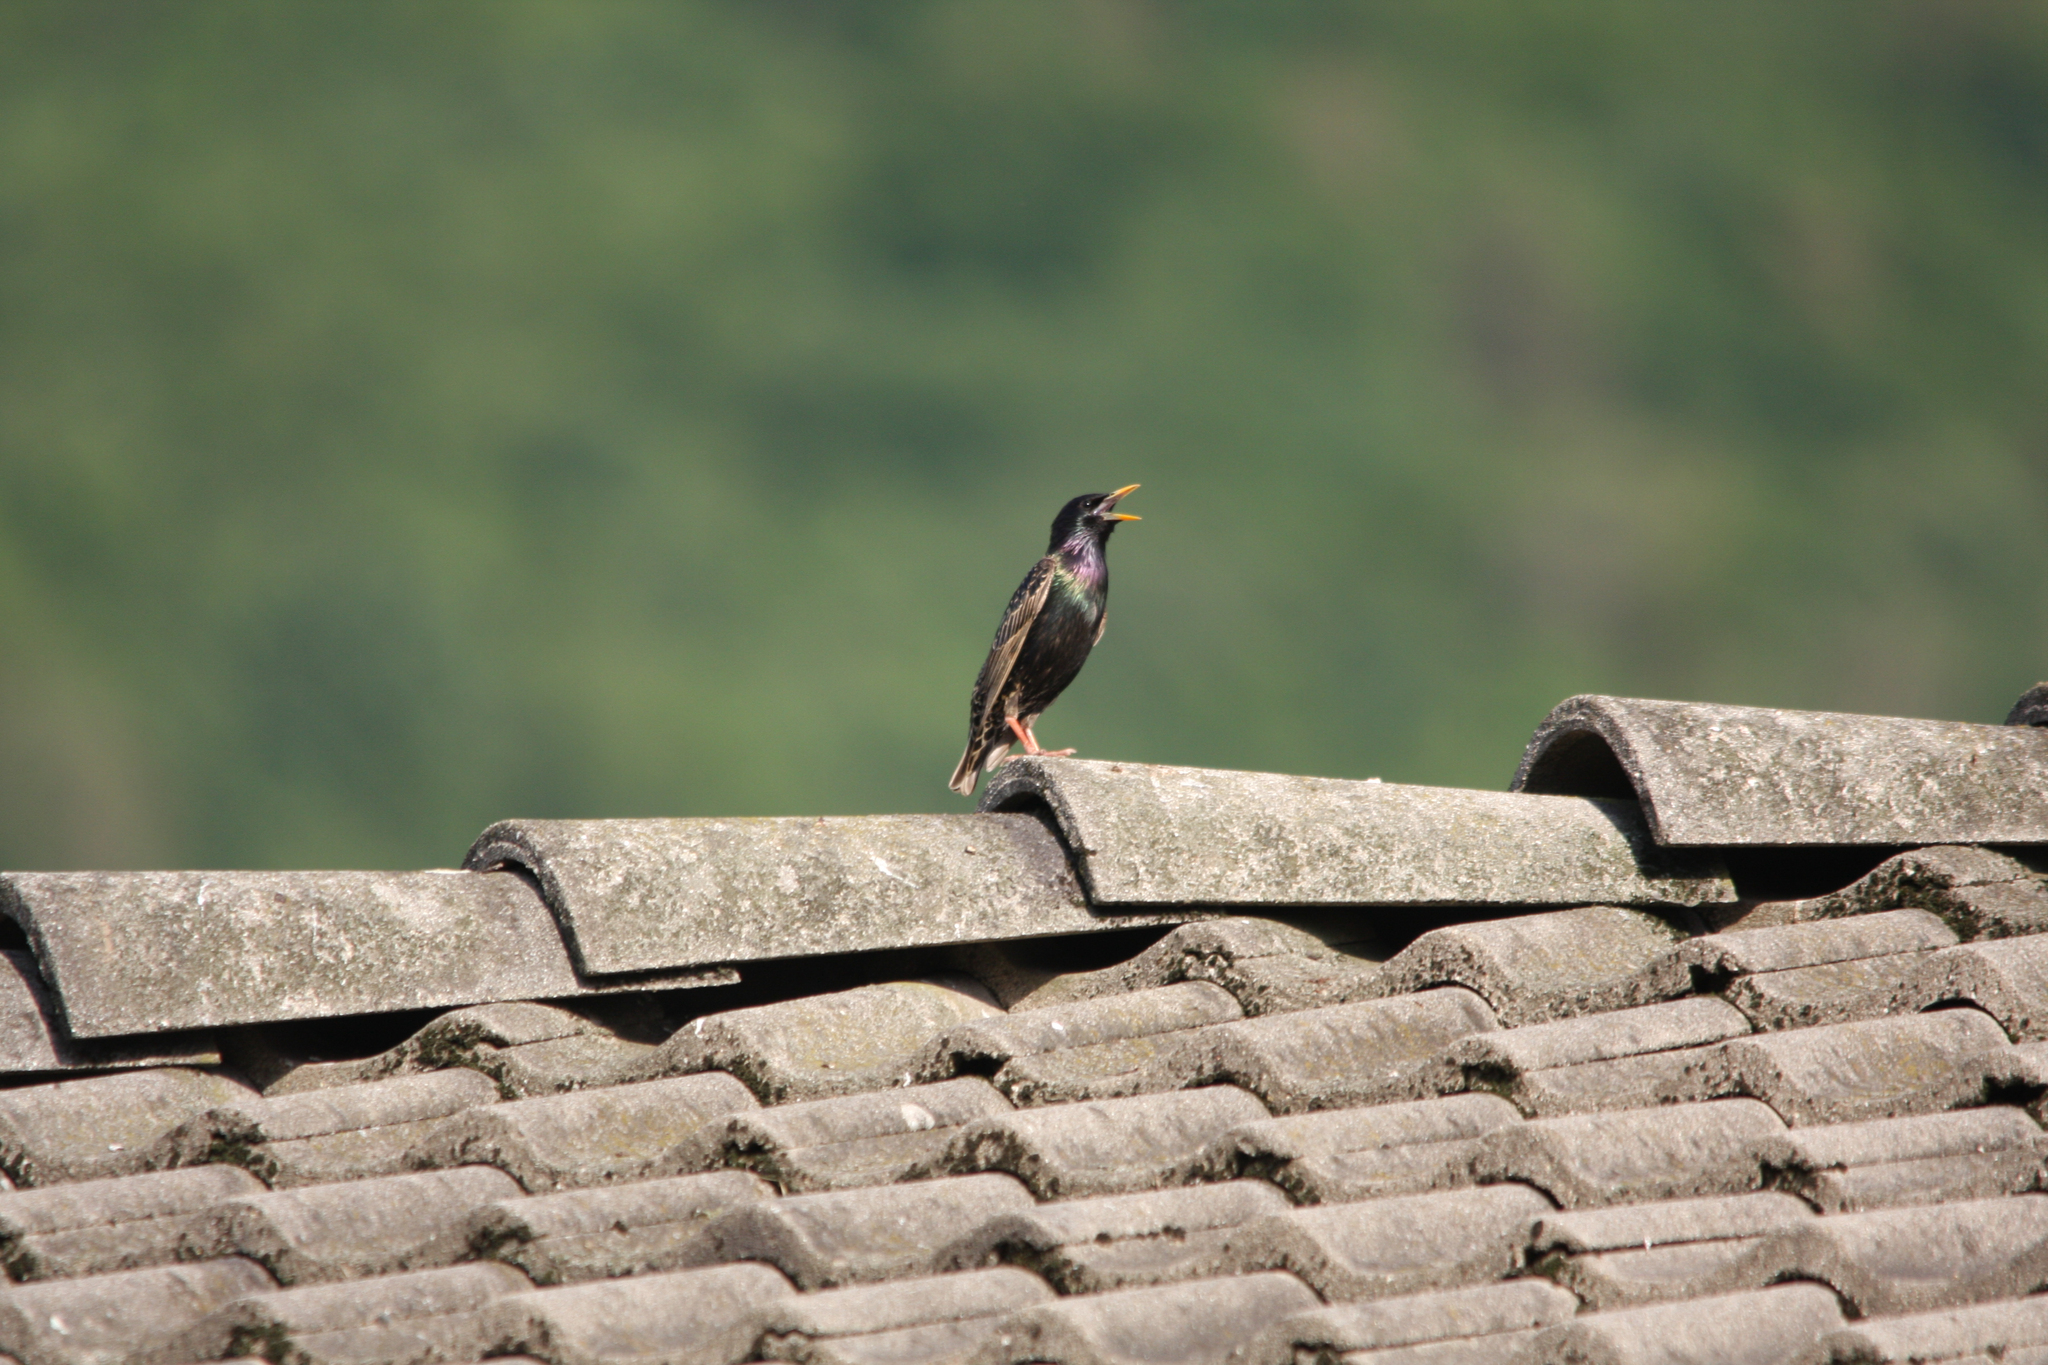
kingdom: Animalia
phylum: Chordata
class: Aves
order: Passeriformes
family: Sturnidae
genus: Sturnus
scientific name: Sturnus vulgaris
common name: Common starling
